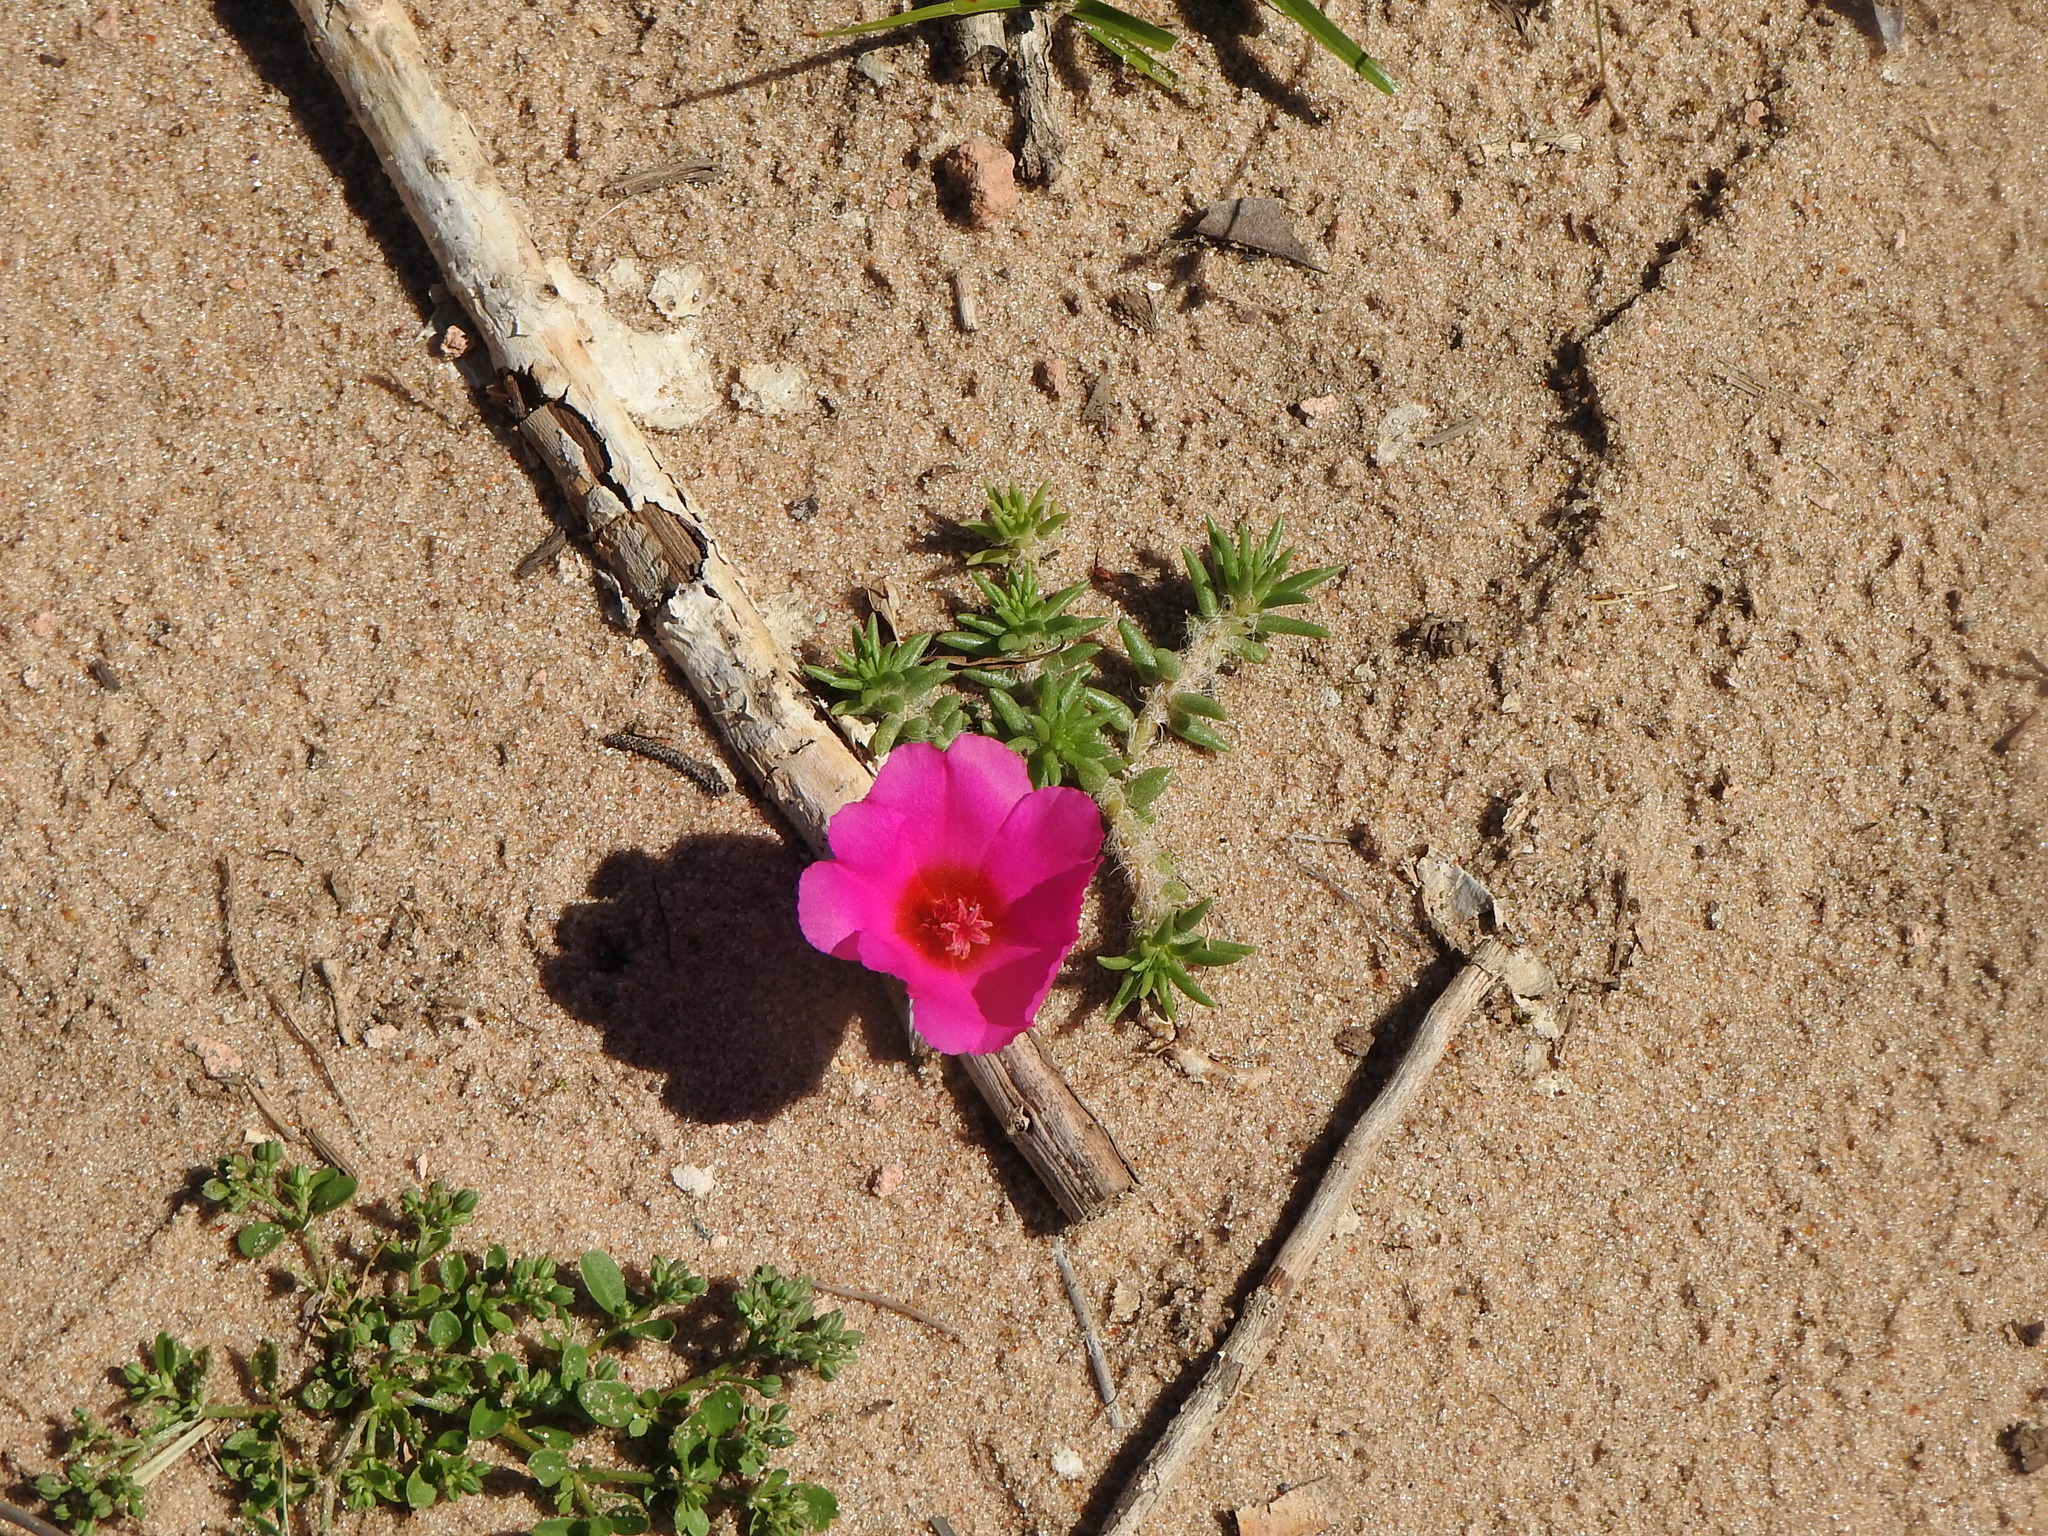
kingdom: Plantae
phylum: Tracheophyta
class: Magnoliopsida
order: Caryophyllales
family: Portulacaceae
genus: Portulaca
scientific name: Portulaca grandiflora
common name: Moss-rose
